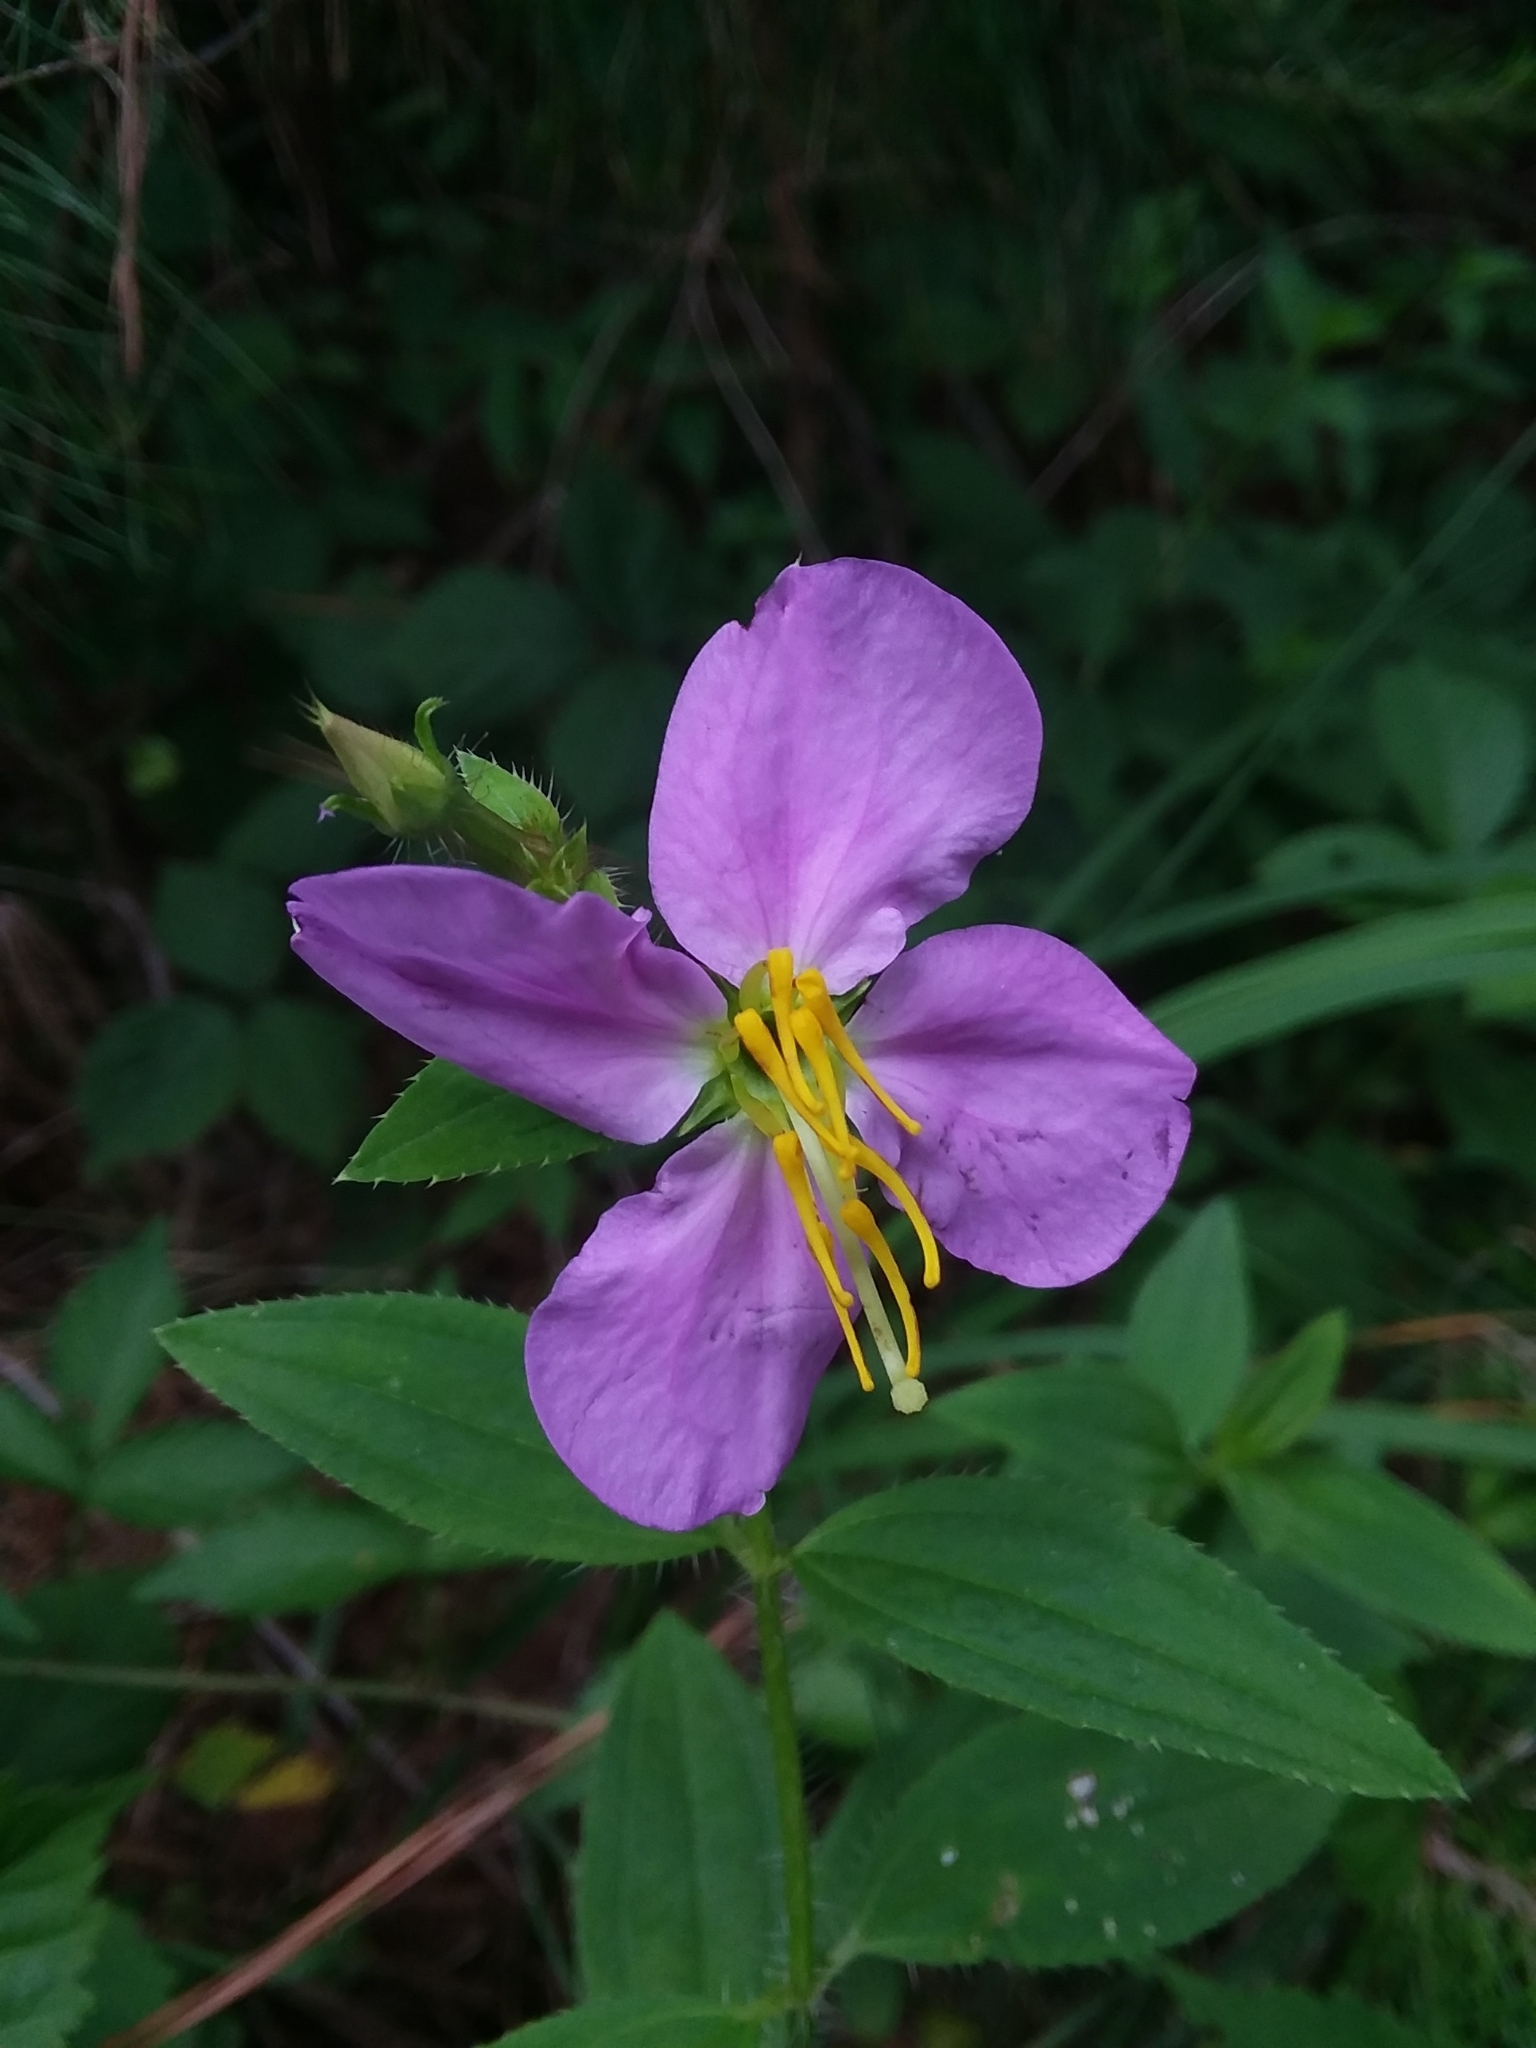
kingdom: Plantae
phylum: Tracheophyta
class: Magnoliopsida
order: Myrtales
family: Melastomataceae
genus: Rhexia
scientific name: Rhexia interior
